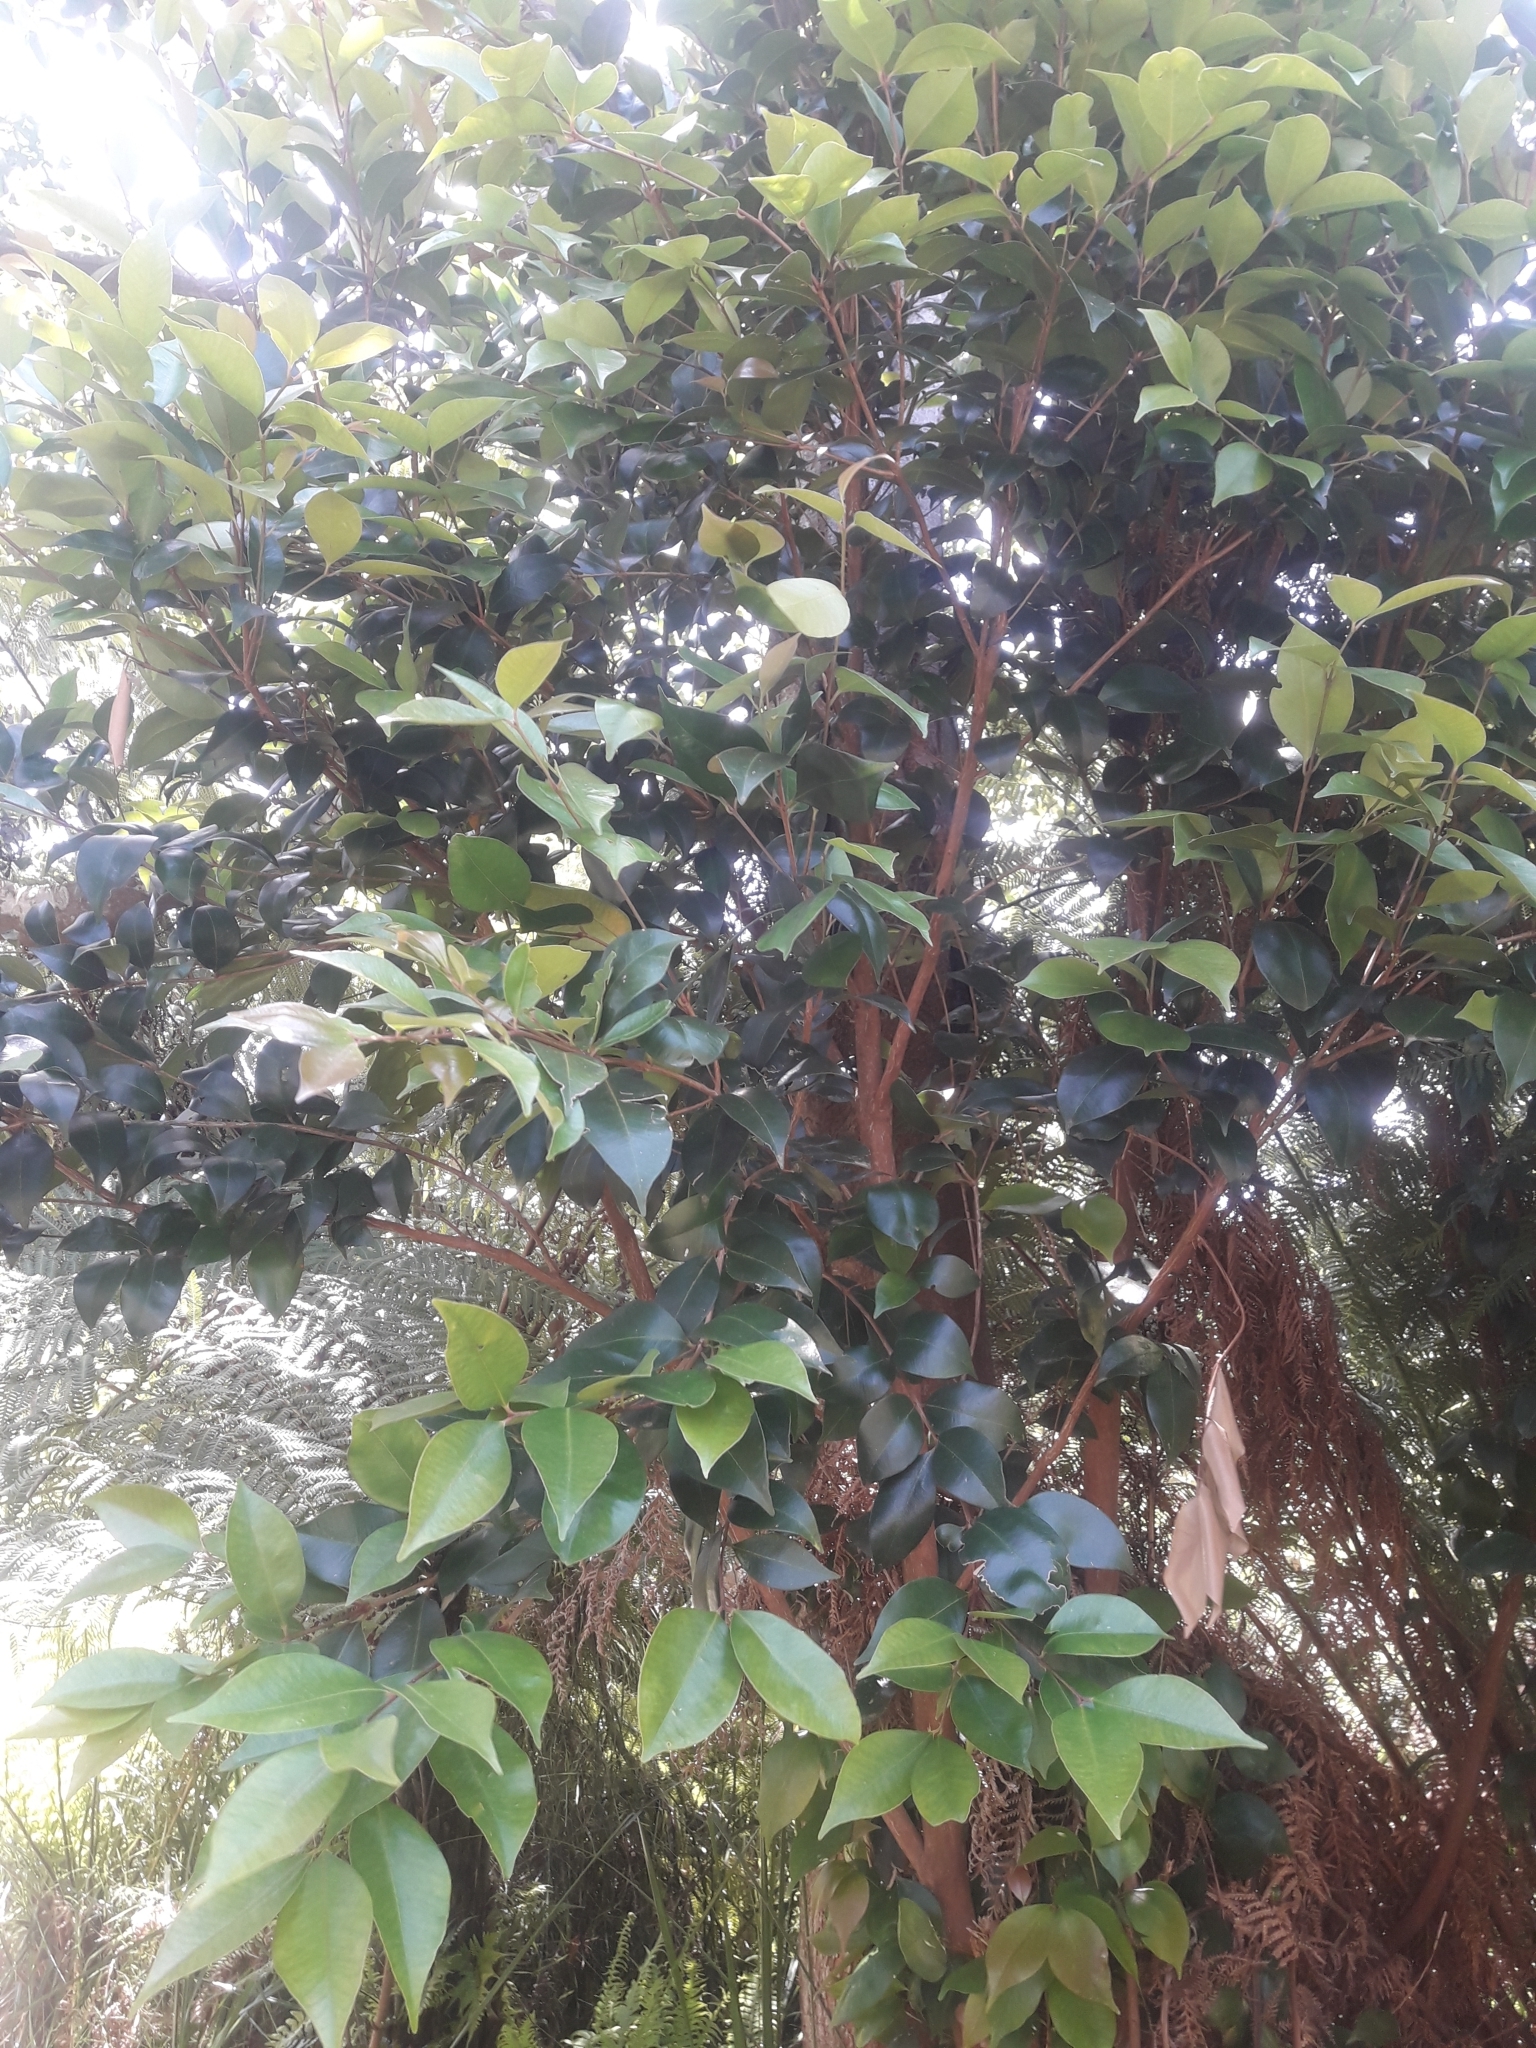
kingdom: Plantae
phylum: Tracheophyta
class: Magnoliopsida
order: Myrtales
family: Myrtaceae
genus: Syzygium
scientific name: Syzygium smithii
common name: Lilly-pilly
